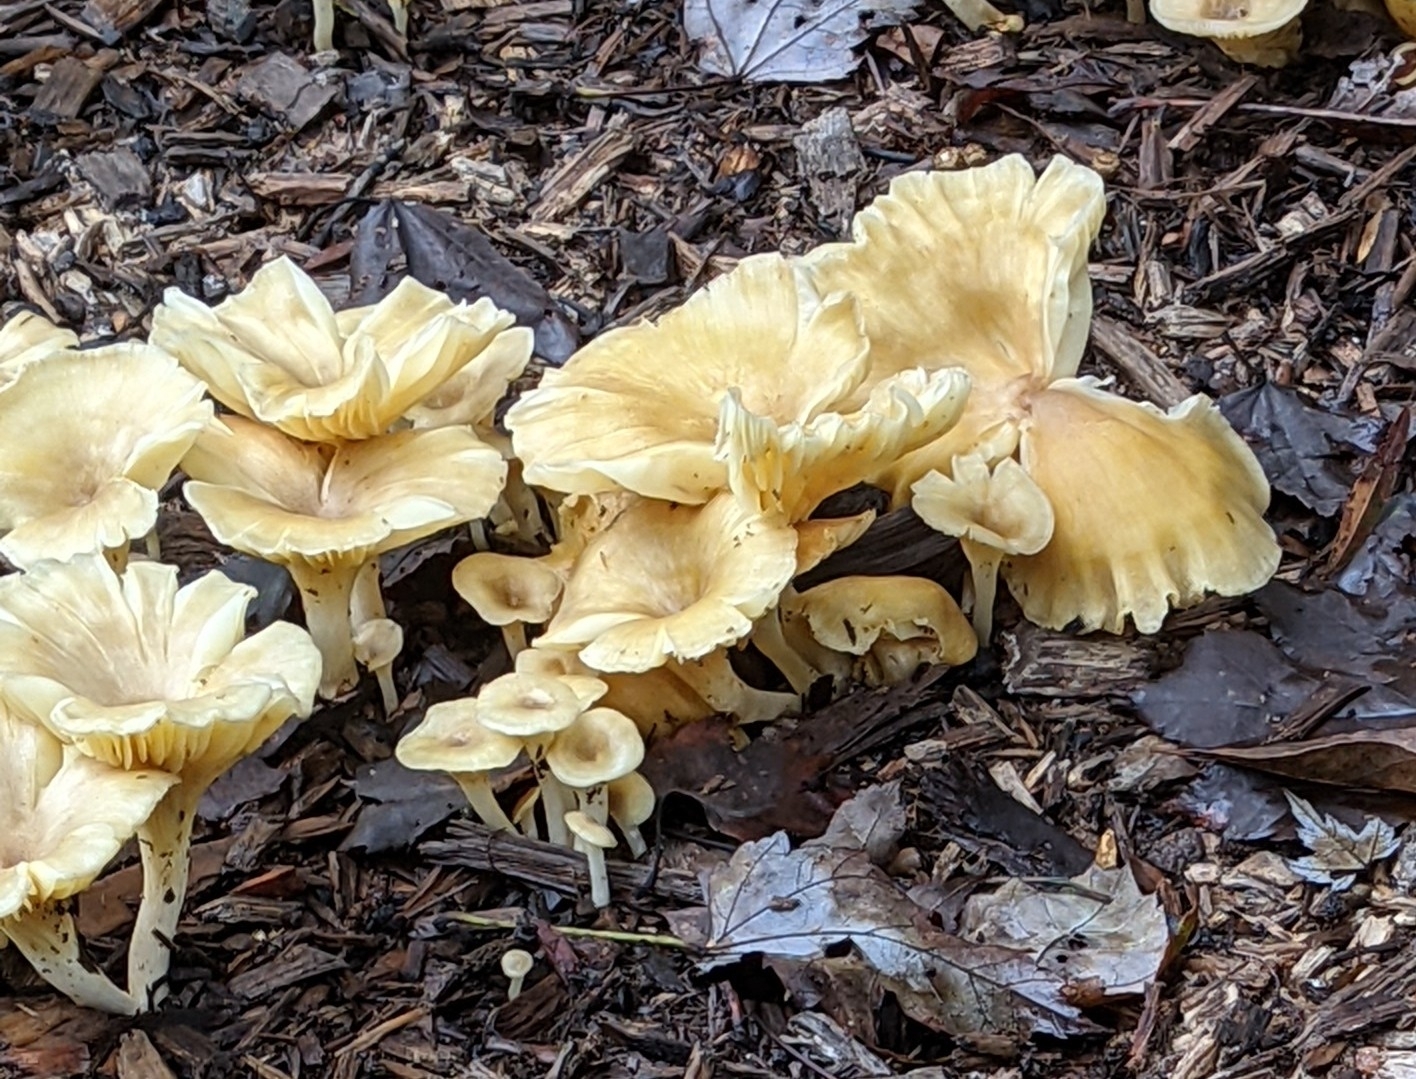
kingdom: Fungi
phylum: Basidiomycota
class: Agaricomycetes
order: Agaricales
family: Marasmiaceae
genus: Gerronema
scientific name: Gerronema strombodes
